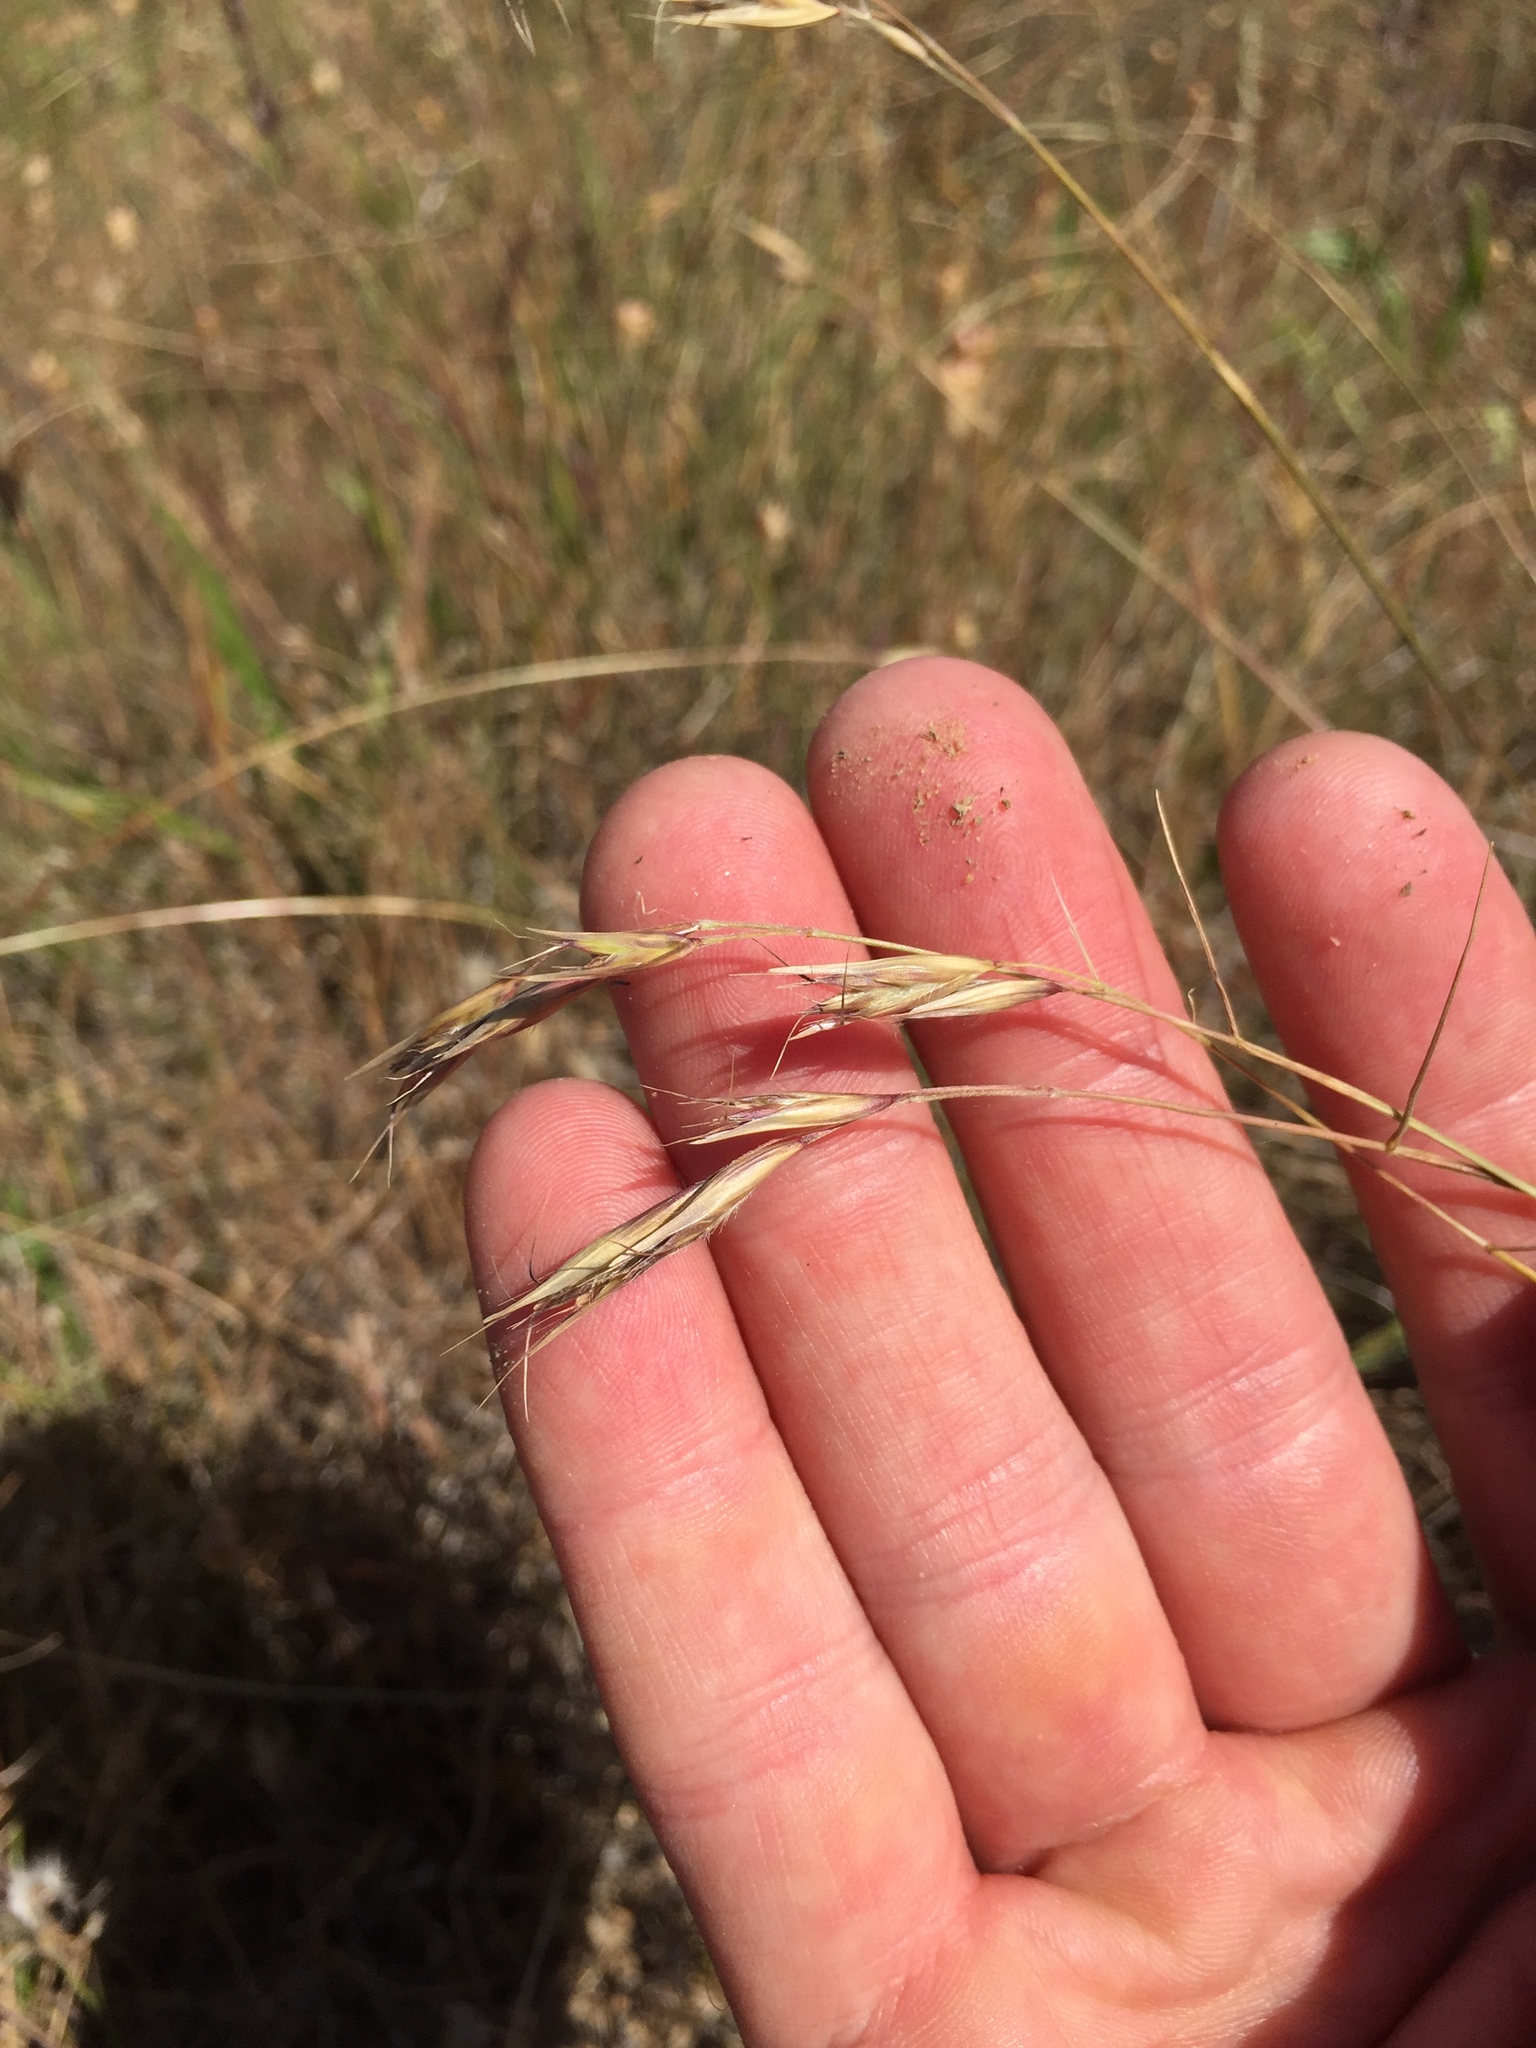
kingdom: Plantae
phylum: Tracheophyta
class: Liliopsida
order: Poales
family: Poaceae
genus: Danthonia
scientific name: Danthonia californica
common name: California oat grass
